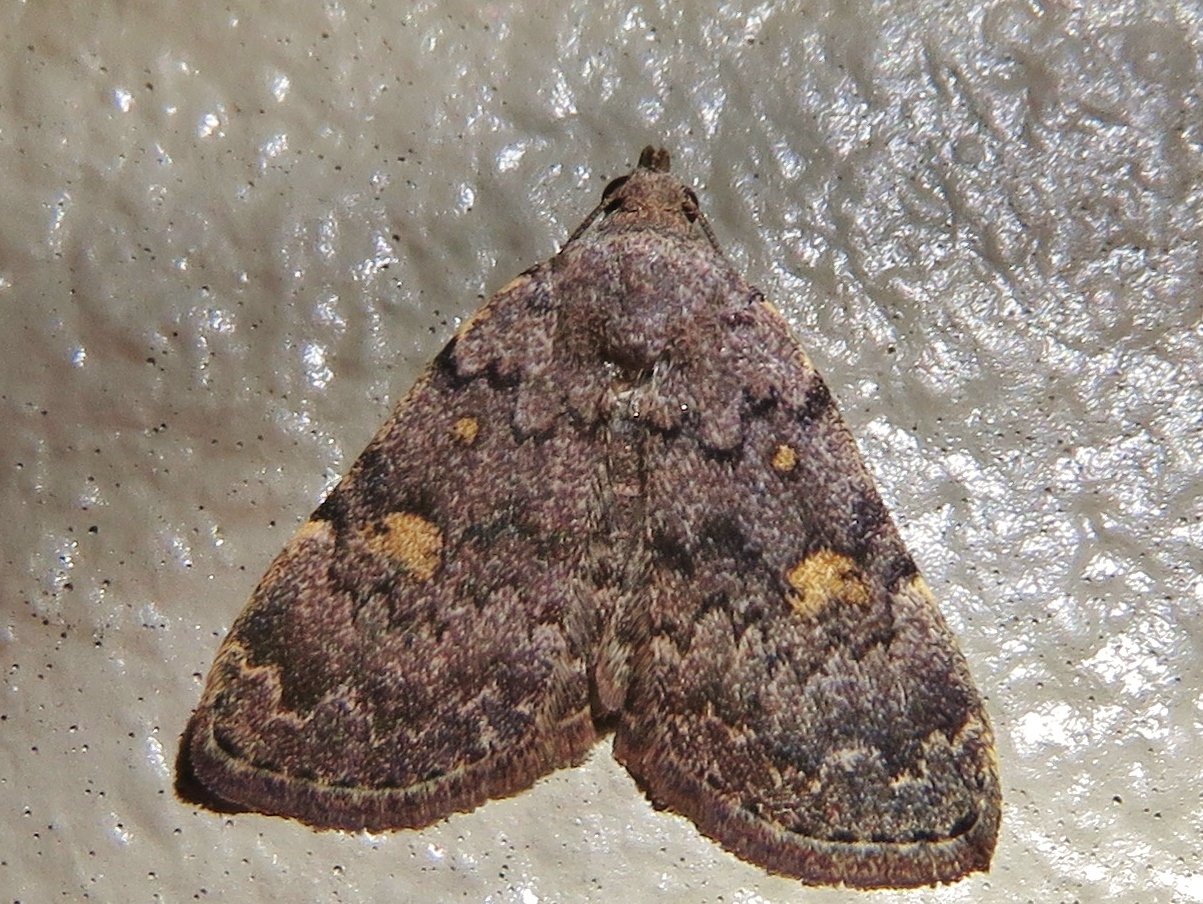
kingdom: Animalia
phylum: Arthropoda
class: Insecta
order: Lepidoptera
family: Erebidae
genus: Idia
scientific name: Idia aemula
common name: Common idia moth
